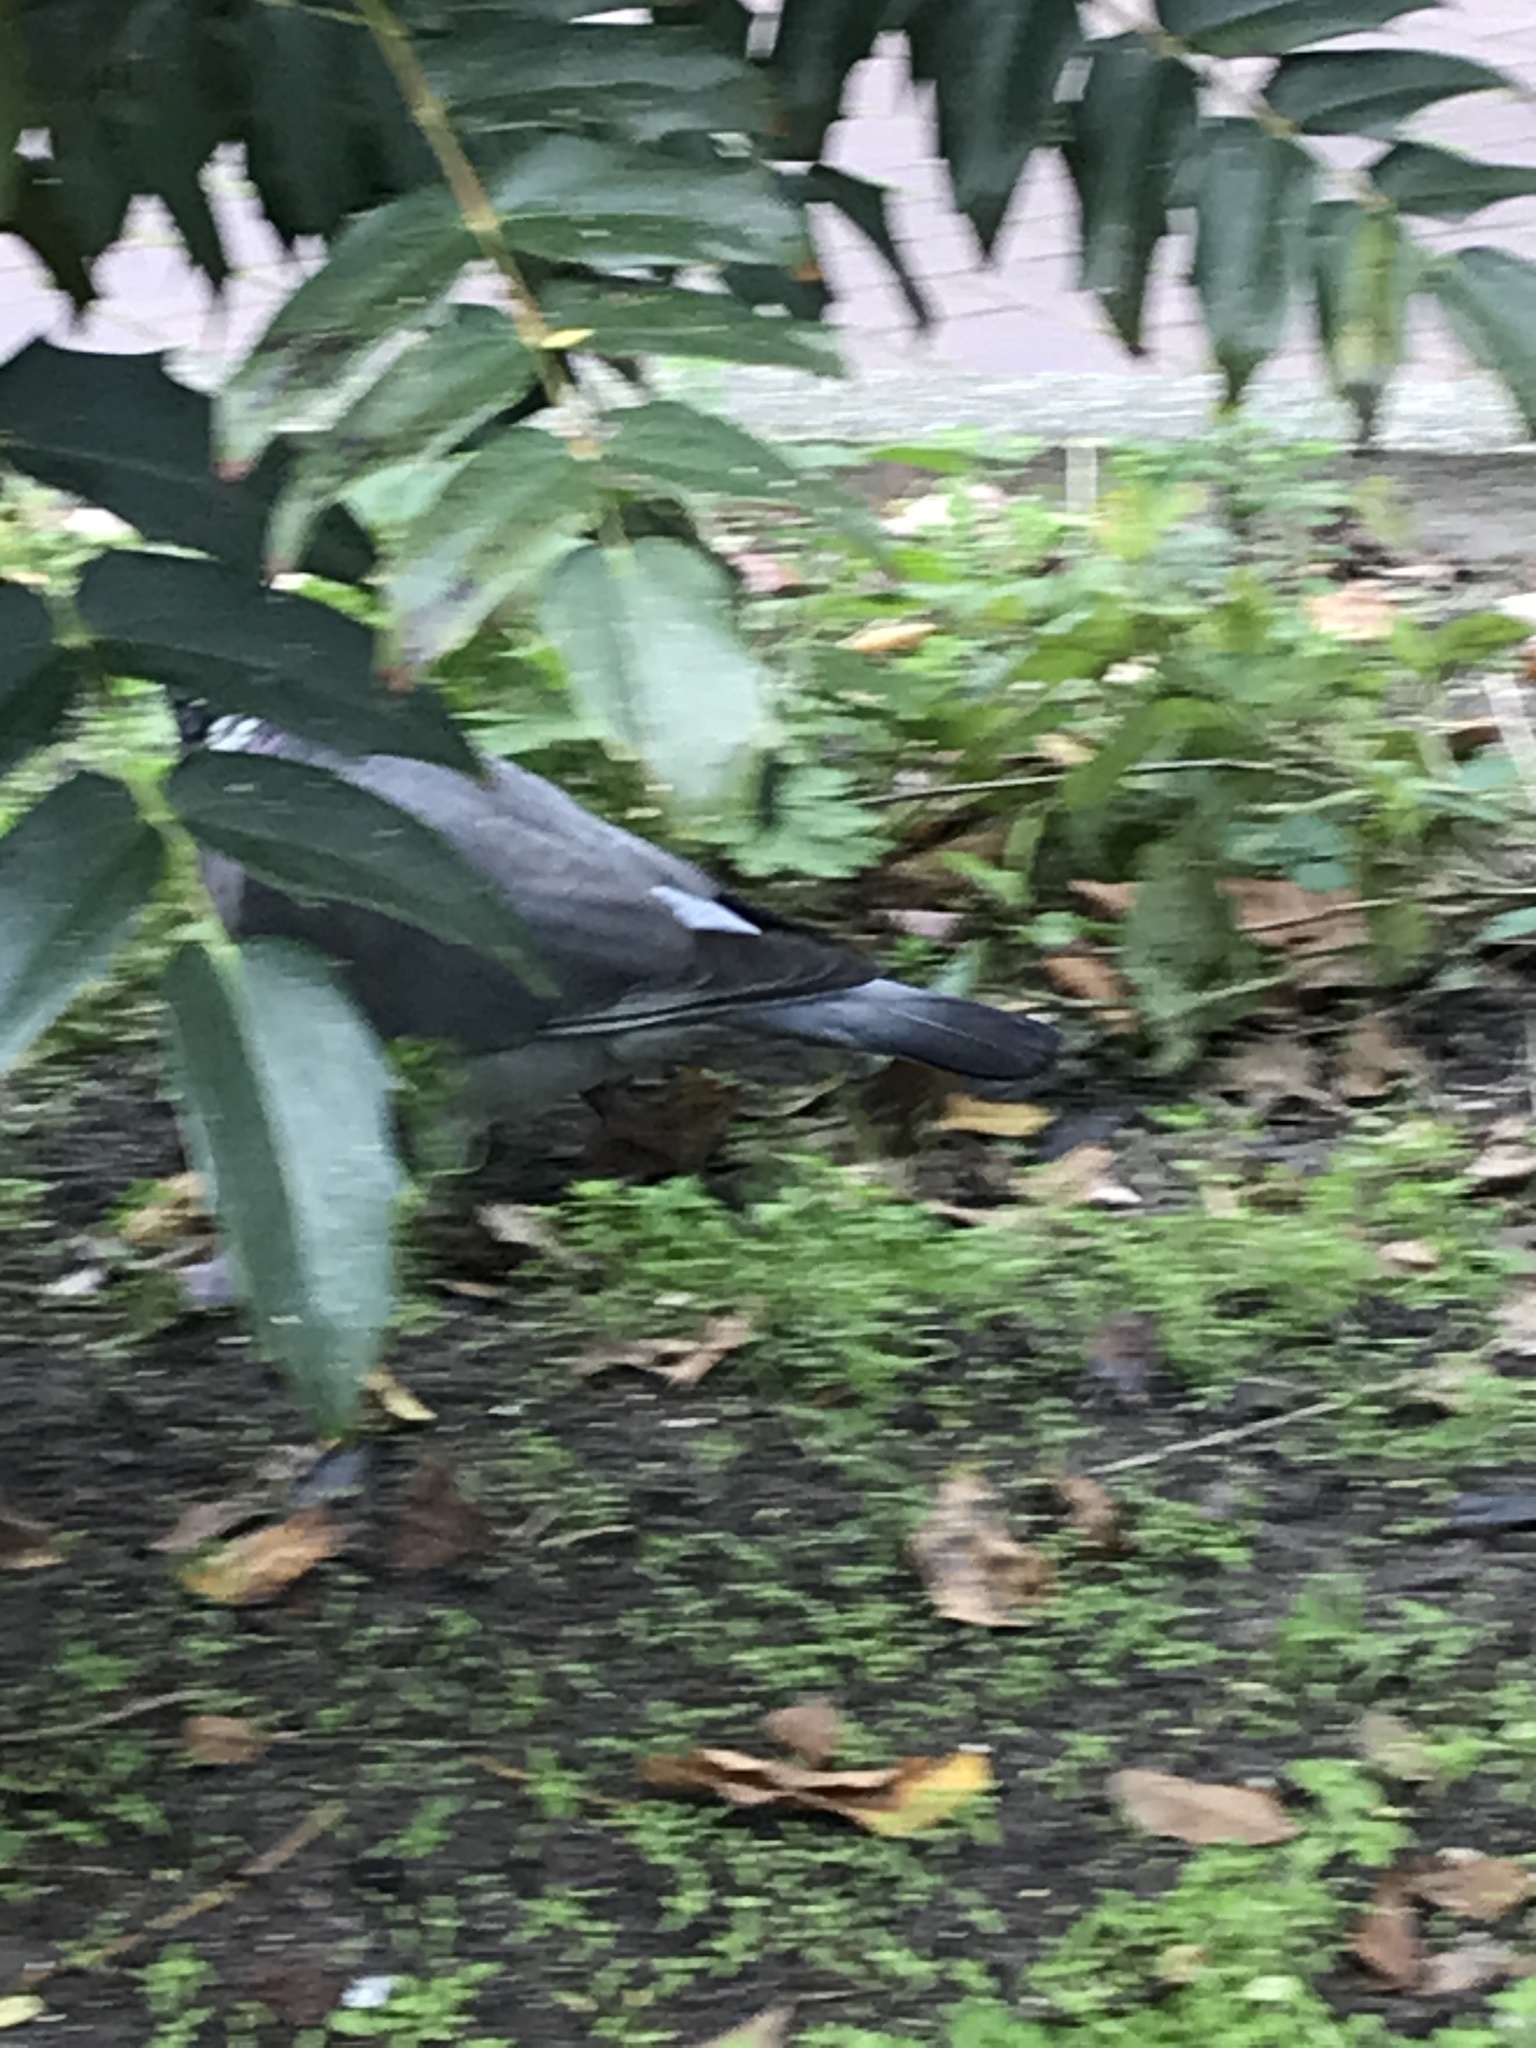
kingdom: Animalia
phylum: Chordata
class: Aves
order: Columbiformes
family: Columbidae
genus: Columba
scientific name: Columba livia
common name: Rock pigeon
